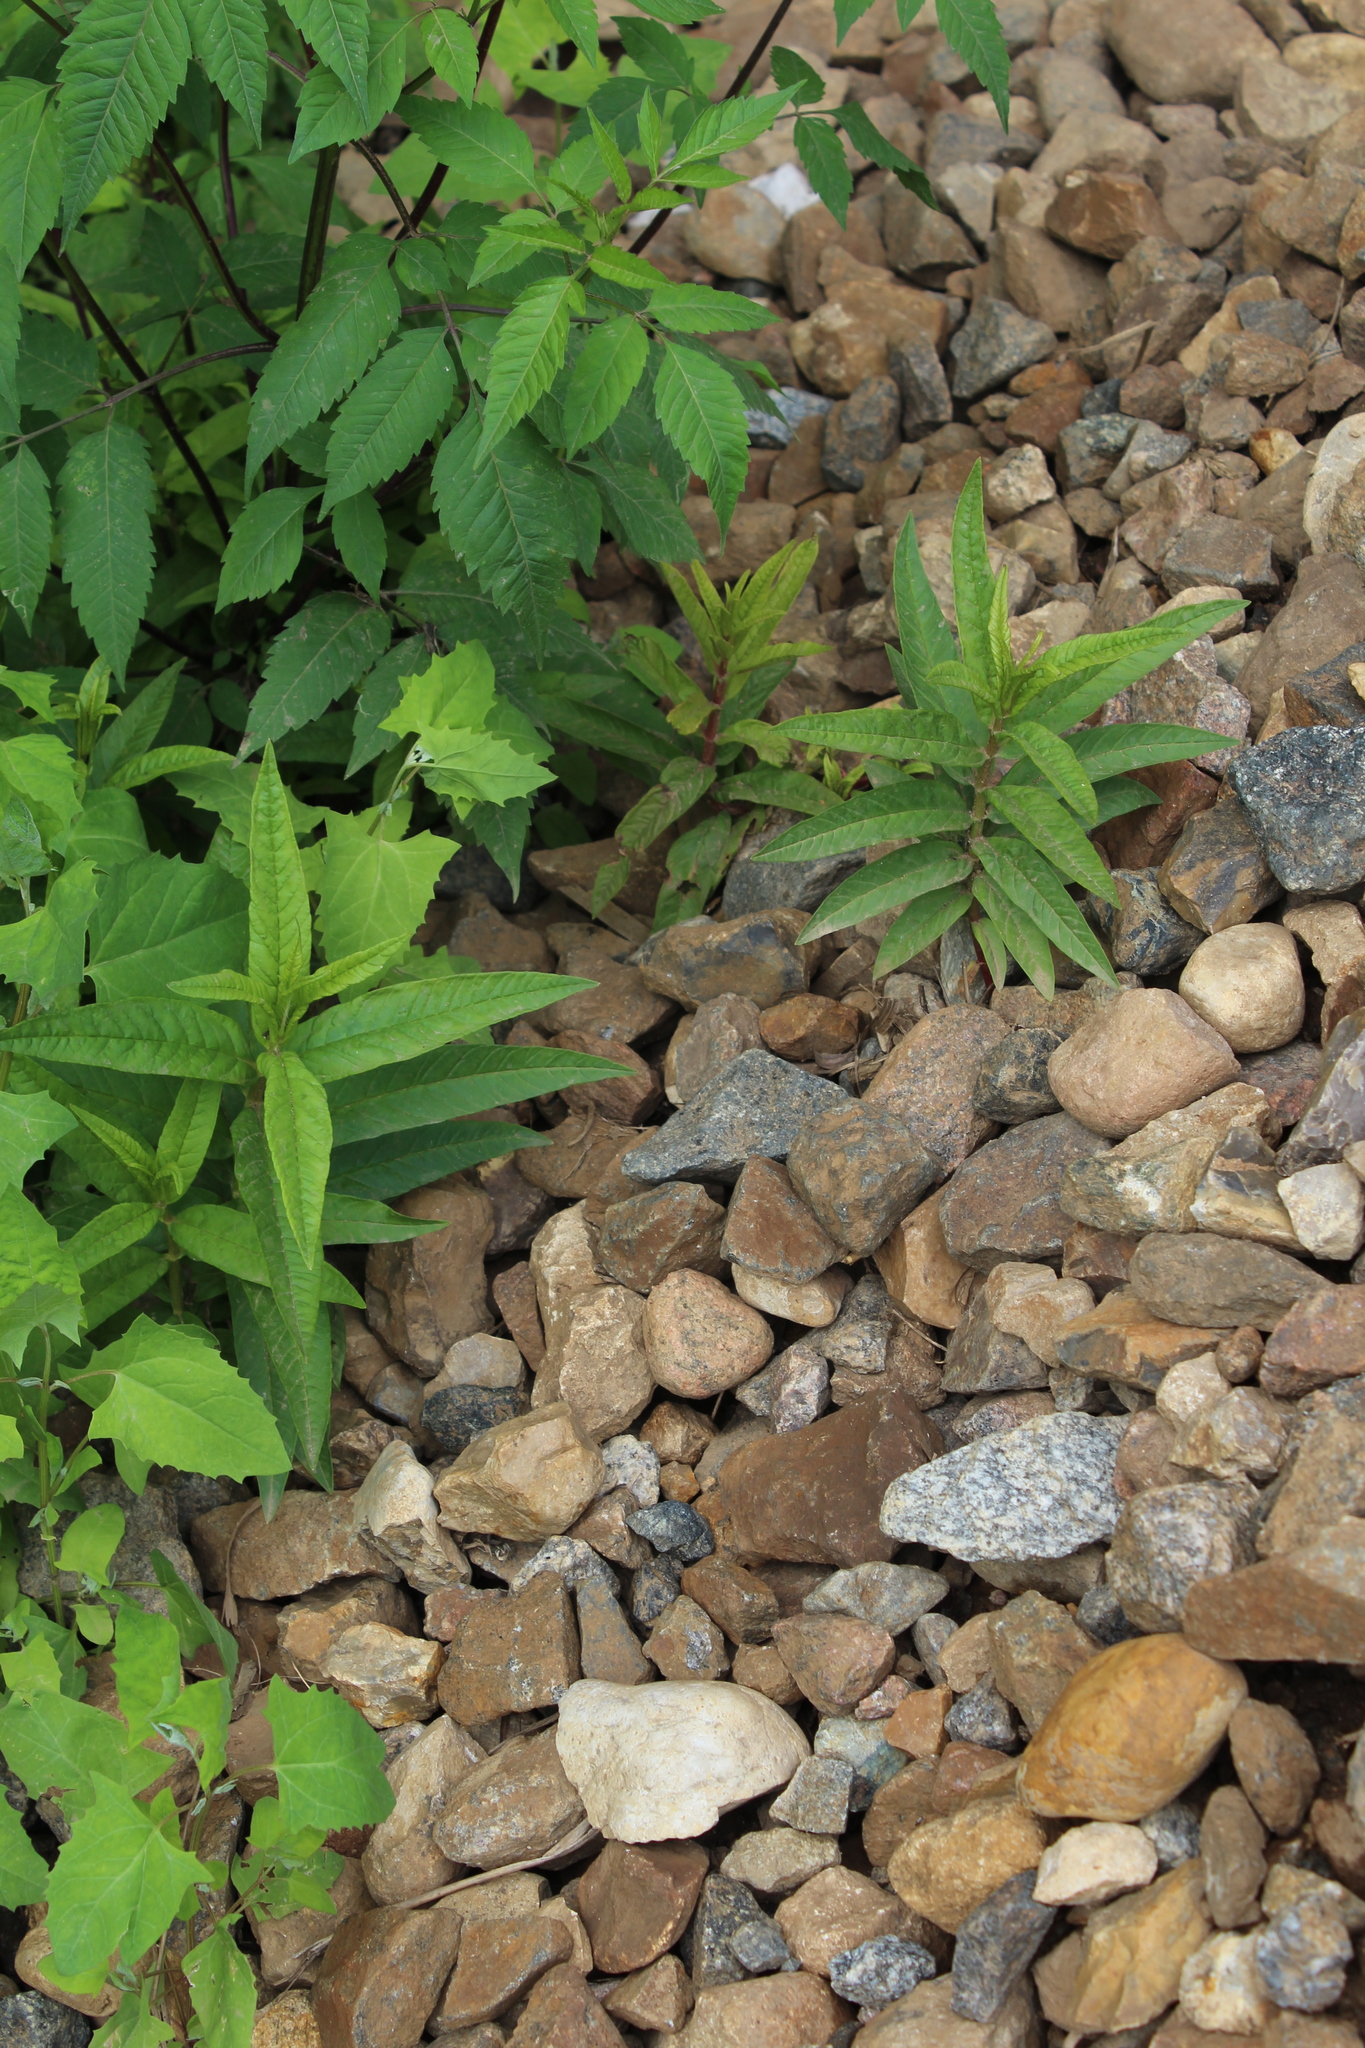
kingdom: Plantae
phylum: Tracheophyta
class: Magnoliopsida
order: Ericales
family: Primulaceae
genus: Lysimachia
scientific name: Lysimachia thyrsiflora
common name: Tufted loosestrife
